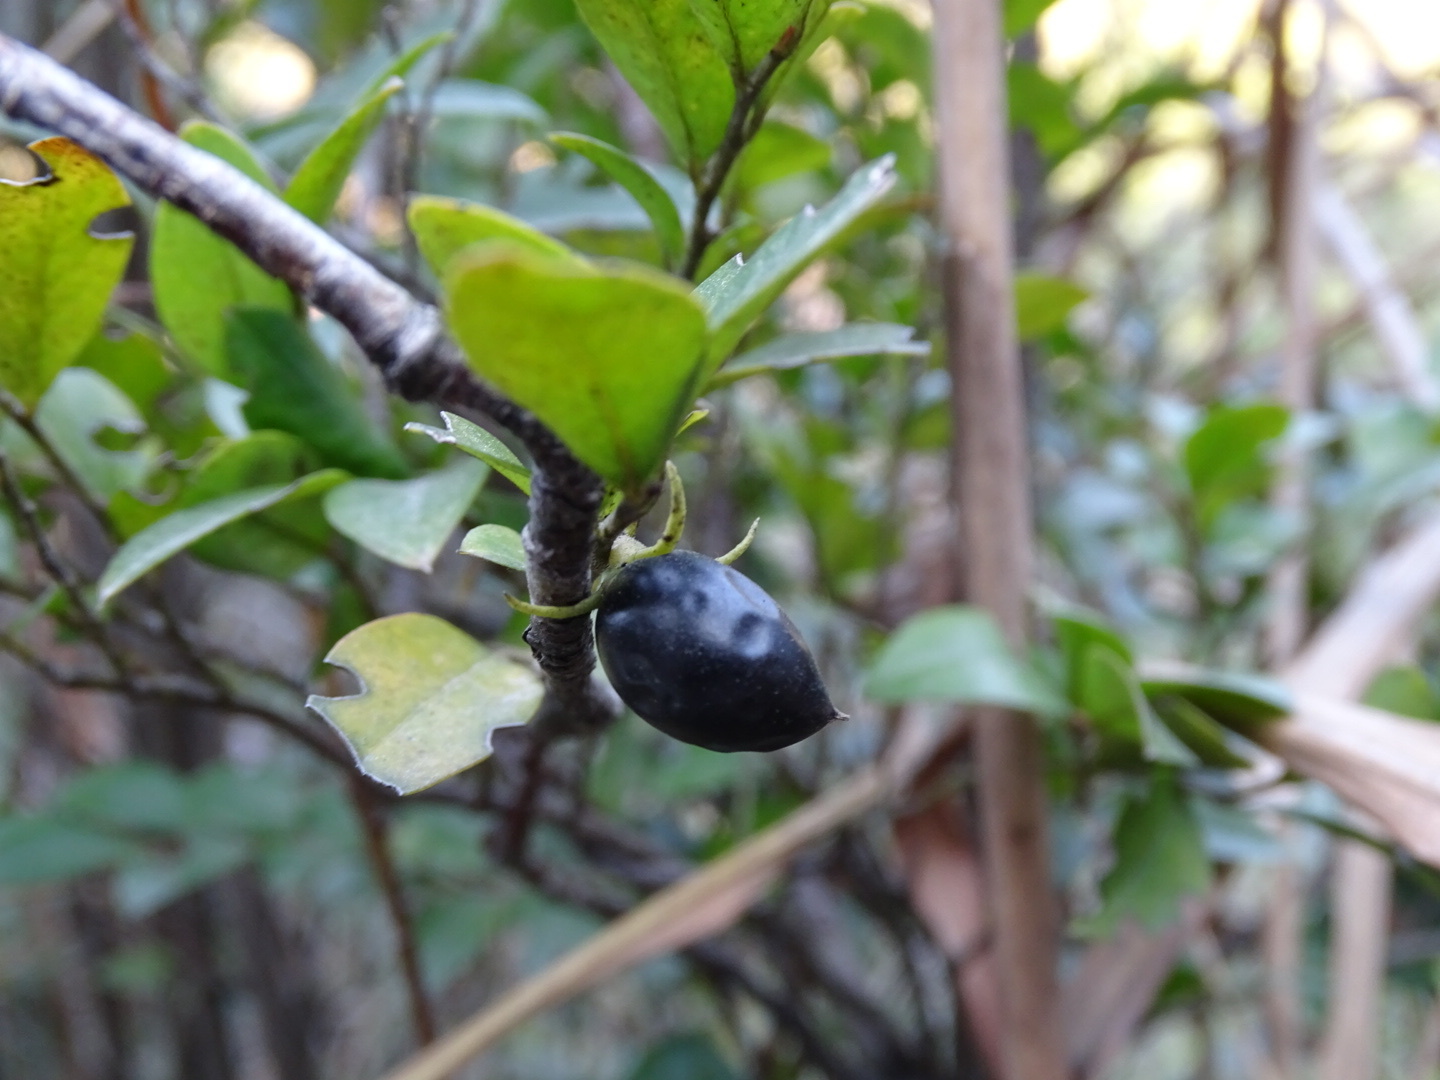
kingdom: Plantae
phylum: Tracheophyta
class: Magnoliopsida
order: Ericales
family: Ebenaceae
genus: Diospyros
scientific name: Diospyros vaccinioides
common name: Small persimmon
